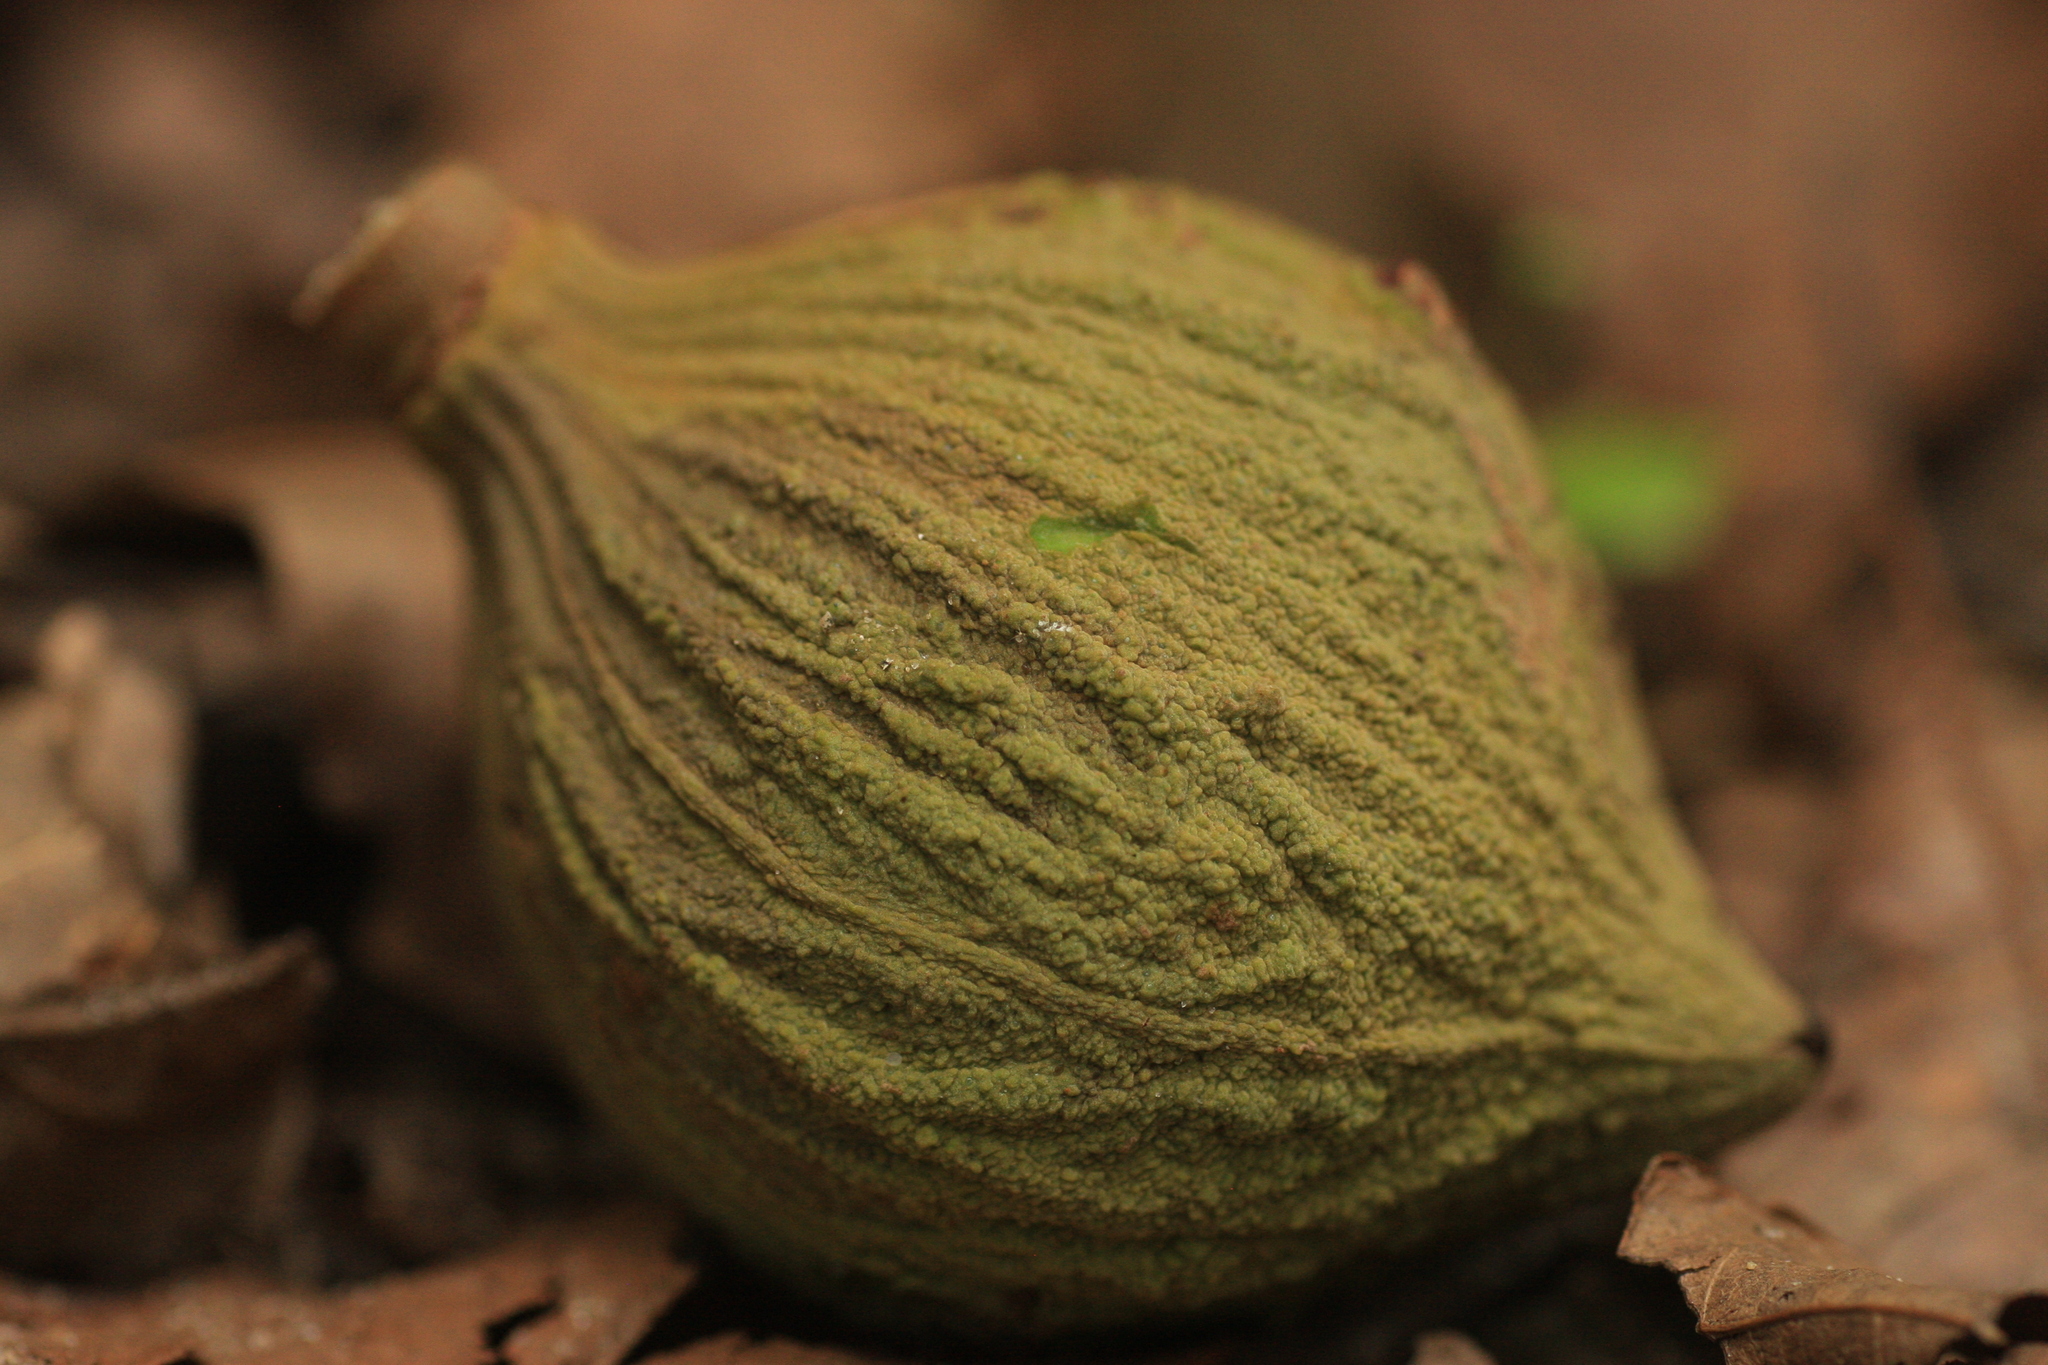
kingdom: Plantae
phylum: Tracheophyta
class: Magnoliopsida
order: Sapindales
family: Meliaceae
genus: Dysoxylum
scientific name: Dysoxylum malabaricum
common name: White cedar
